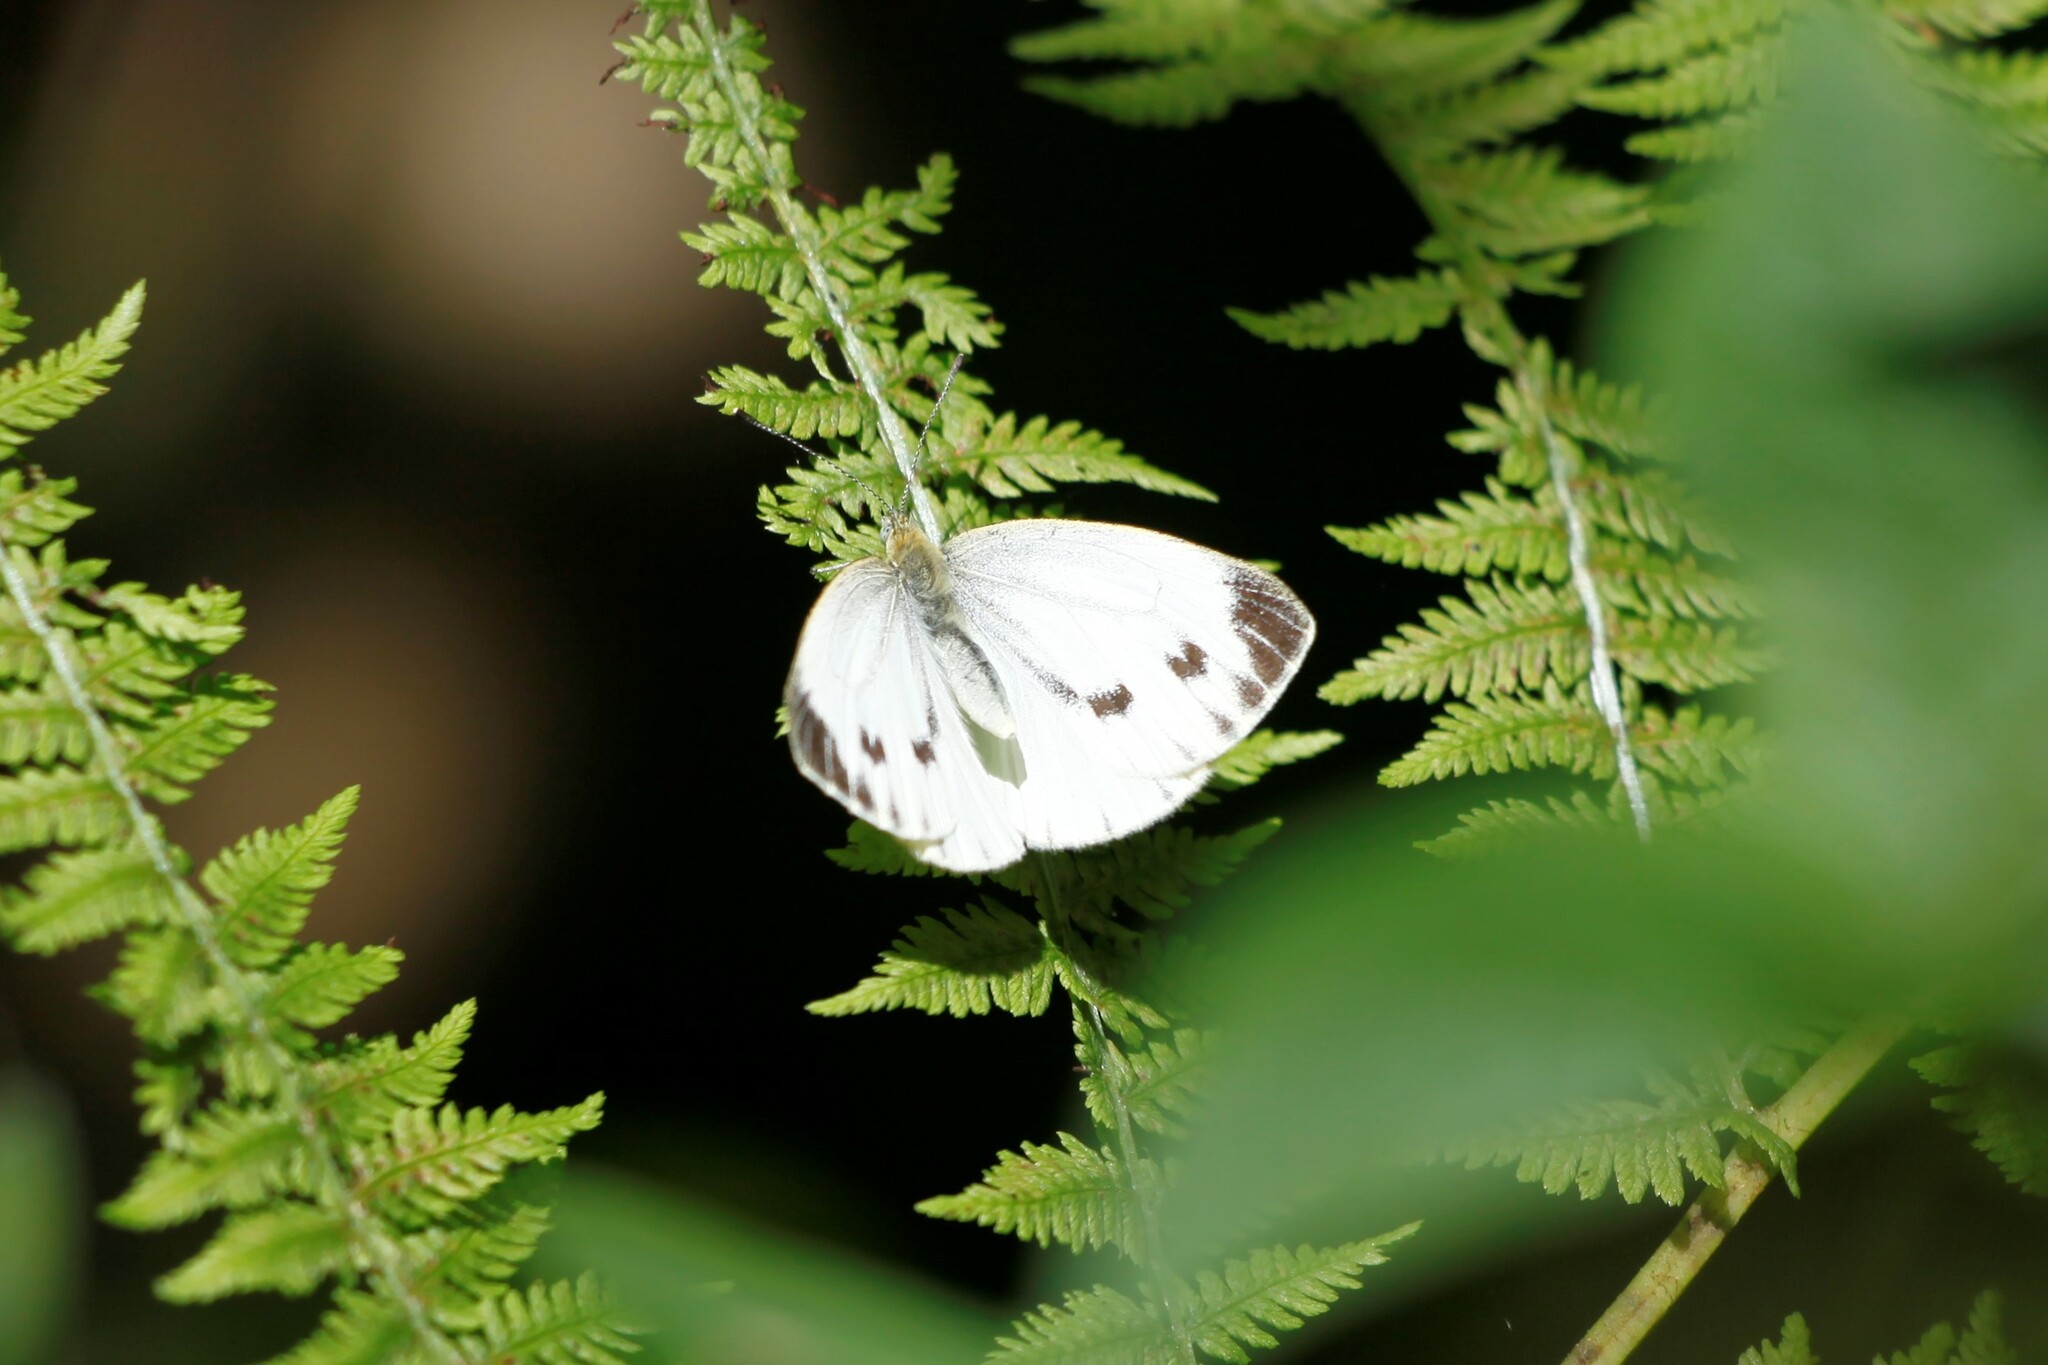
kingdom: Animalia
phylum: Arthropoda
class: Insecta
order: Lepidoptera
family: Pieridae
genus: Pieris
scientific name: Pieris napi
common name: Green-veined white
